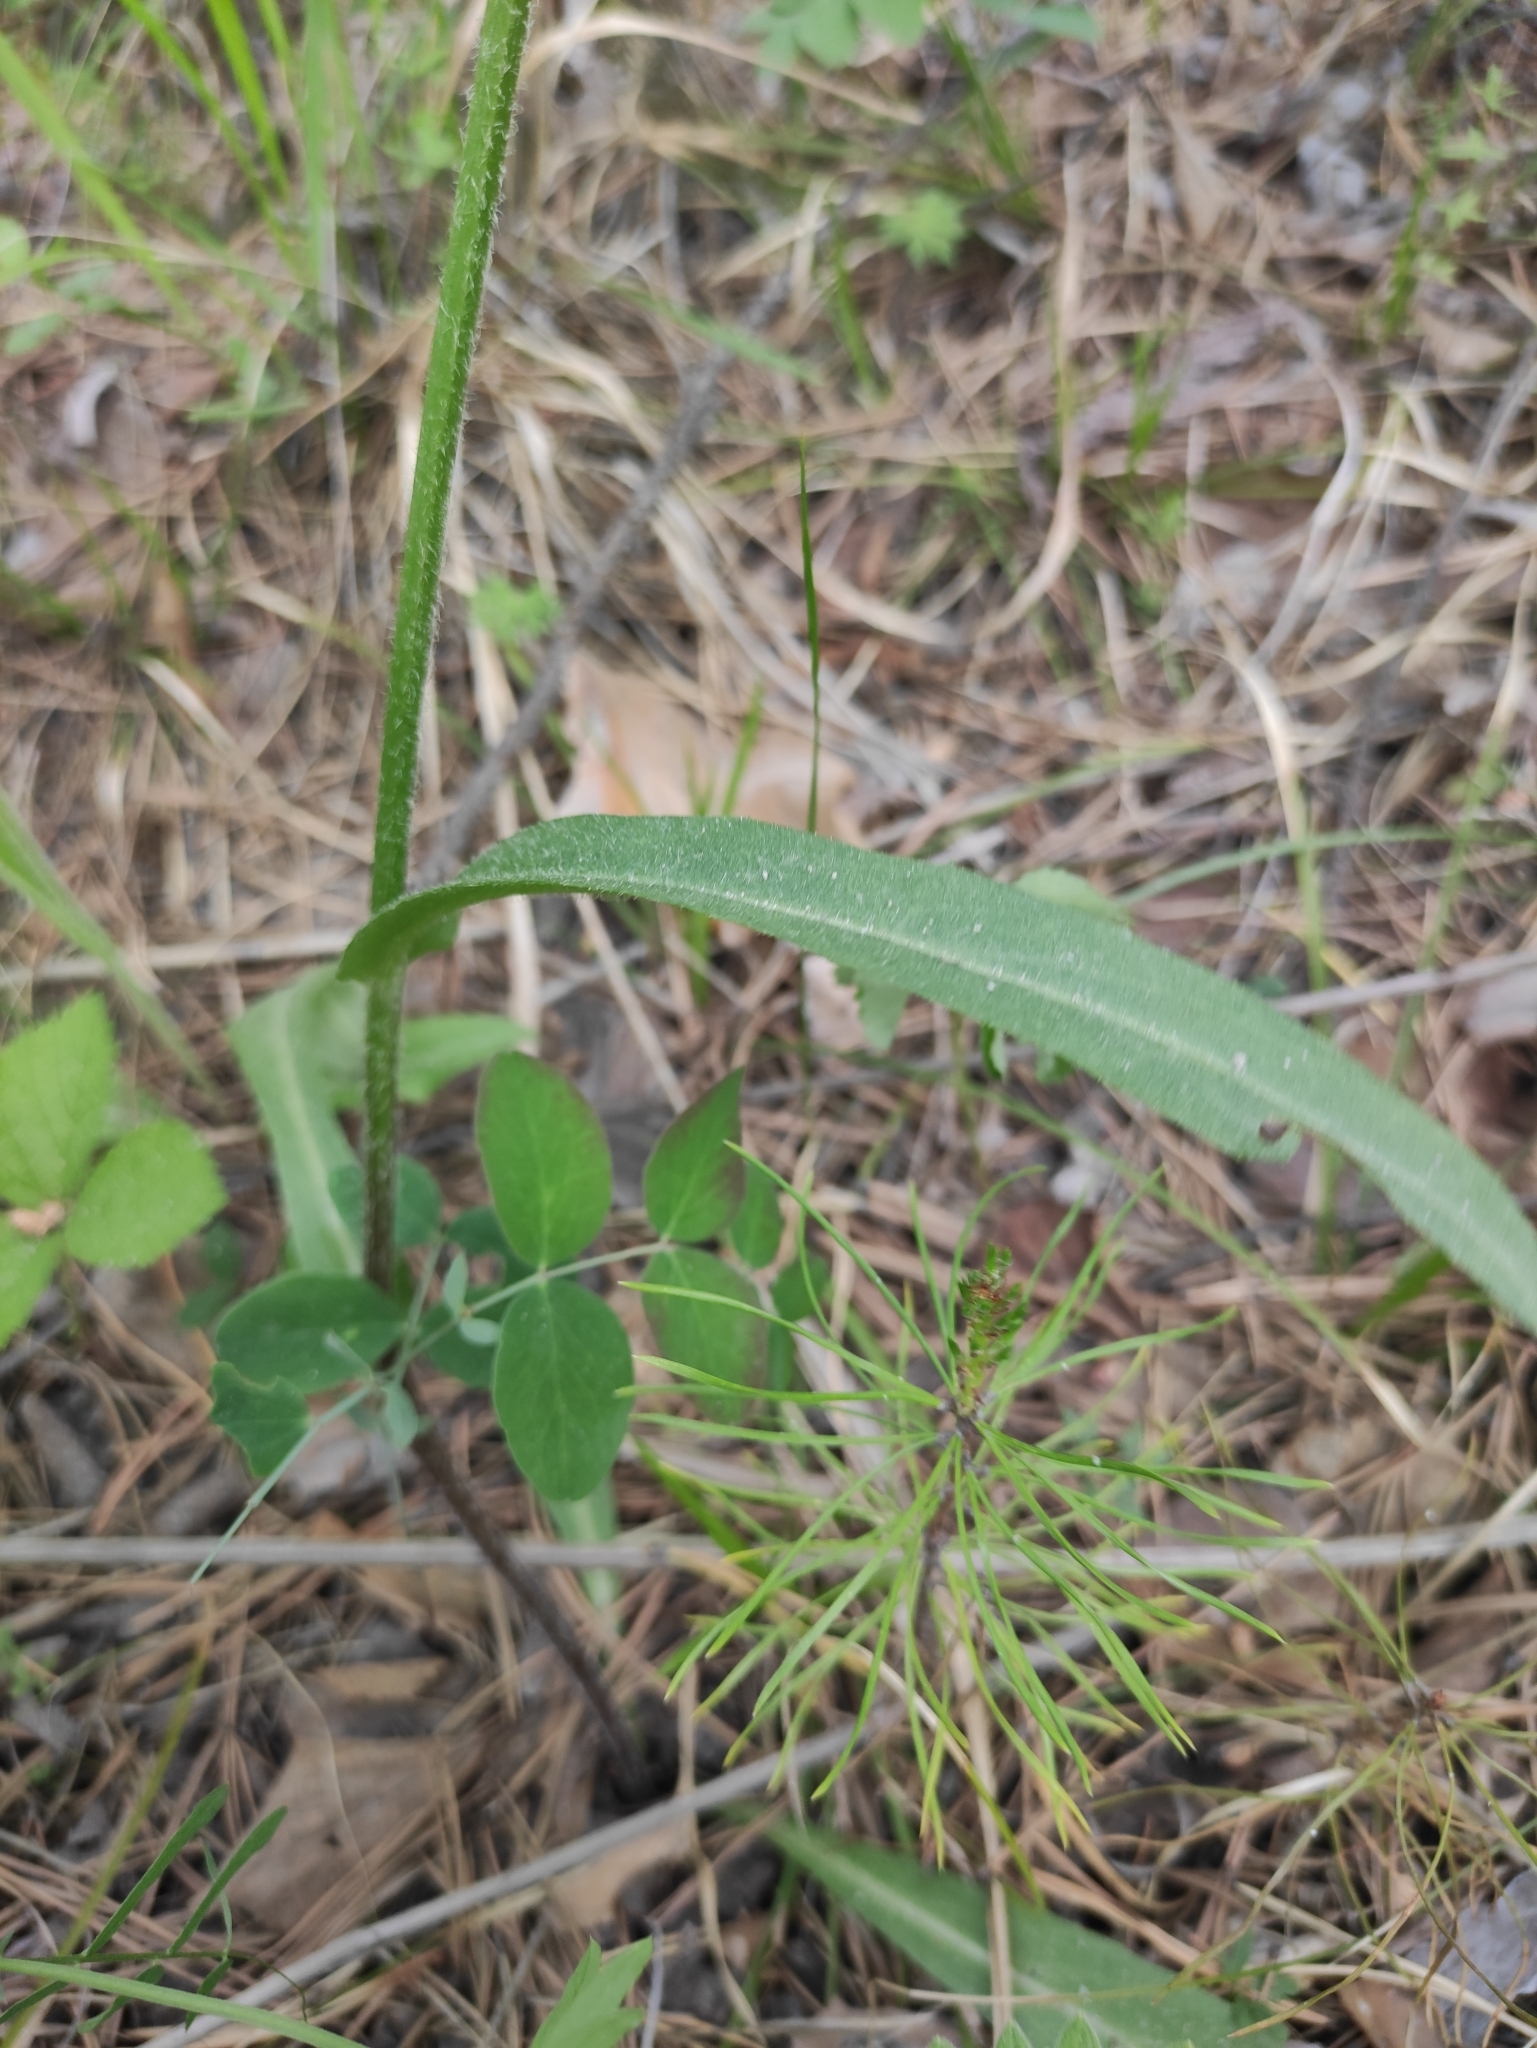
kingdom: Plantae
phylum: Tracheophyta
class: Magnoliopsida
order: Asterales
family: Asteraceae
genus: Tephroseris
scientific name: Tephroseris porphyrantha
